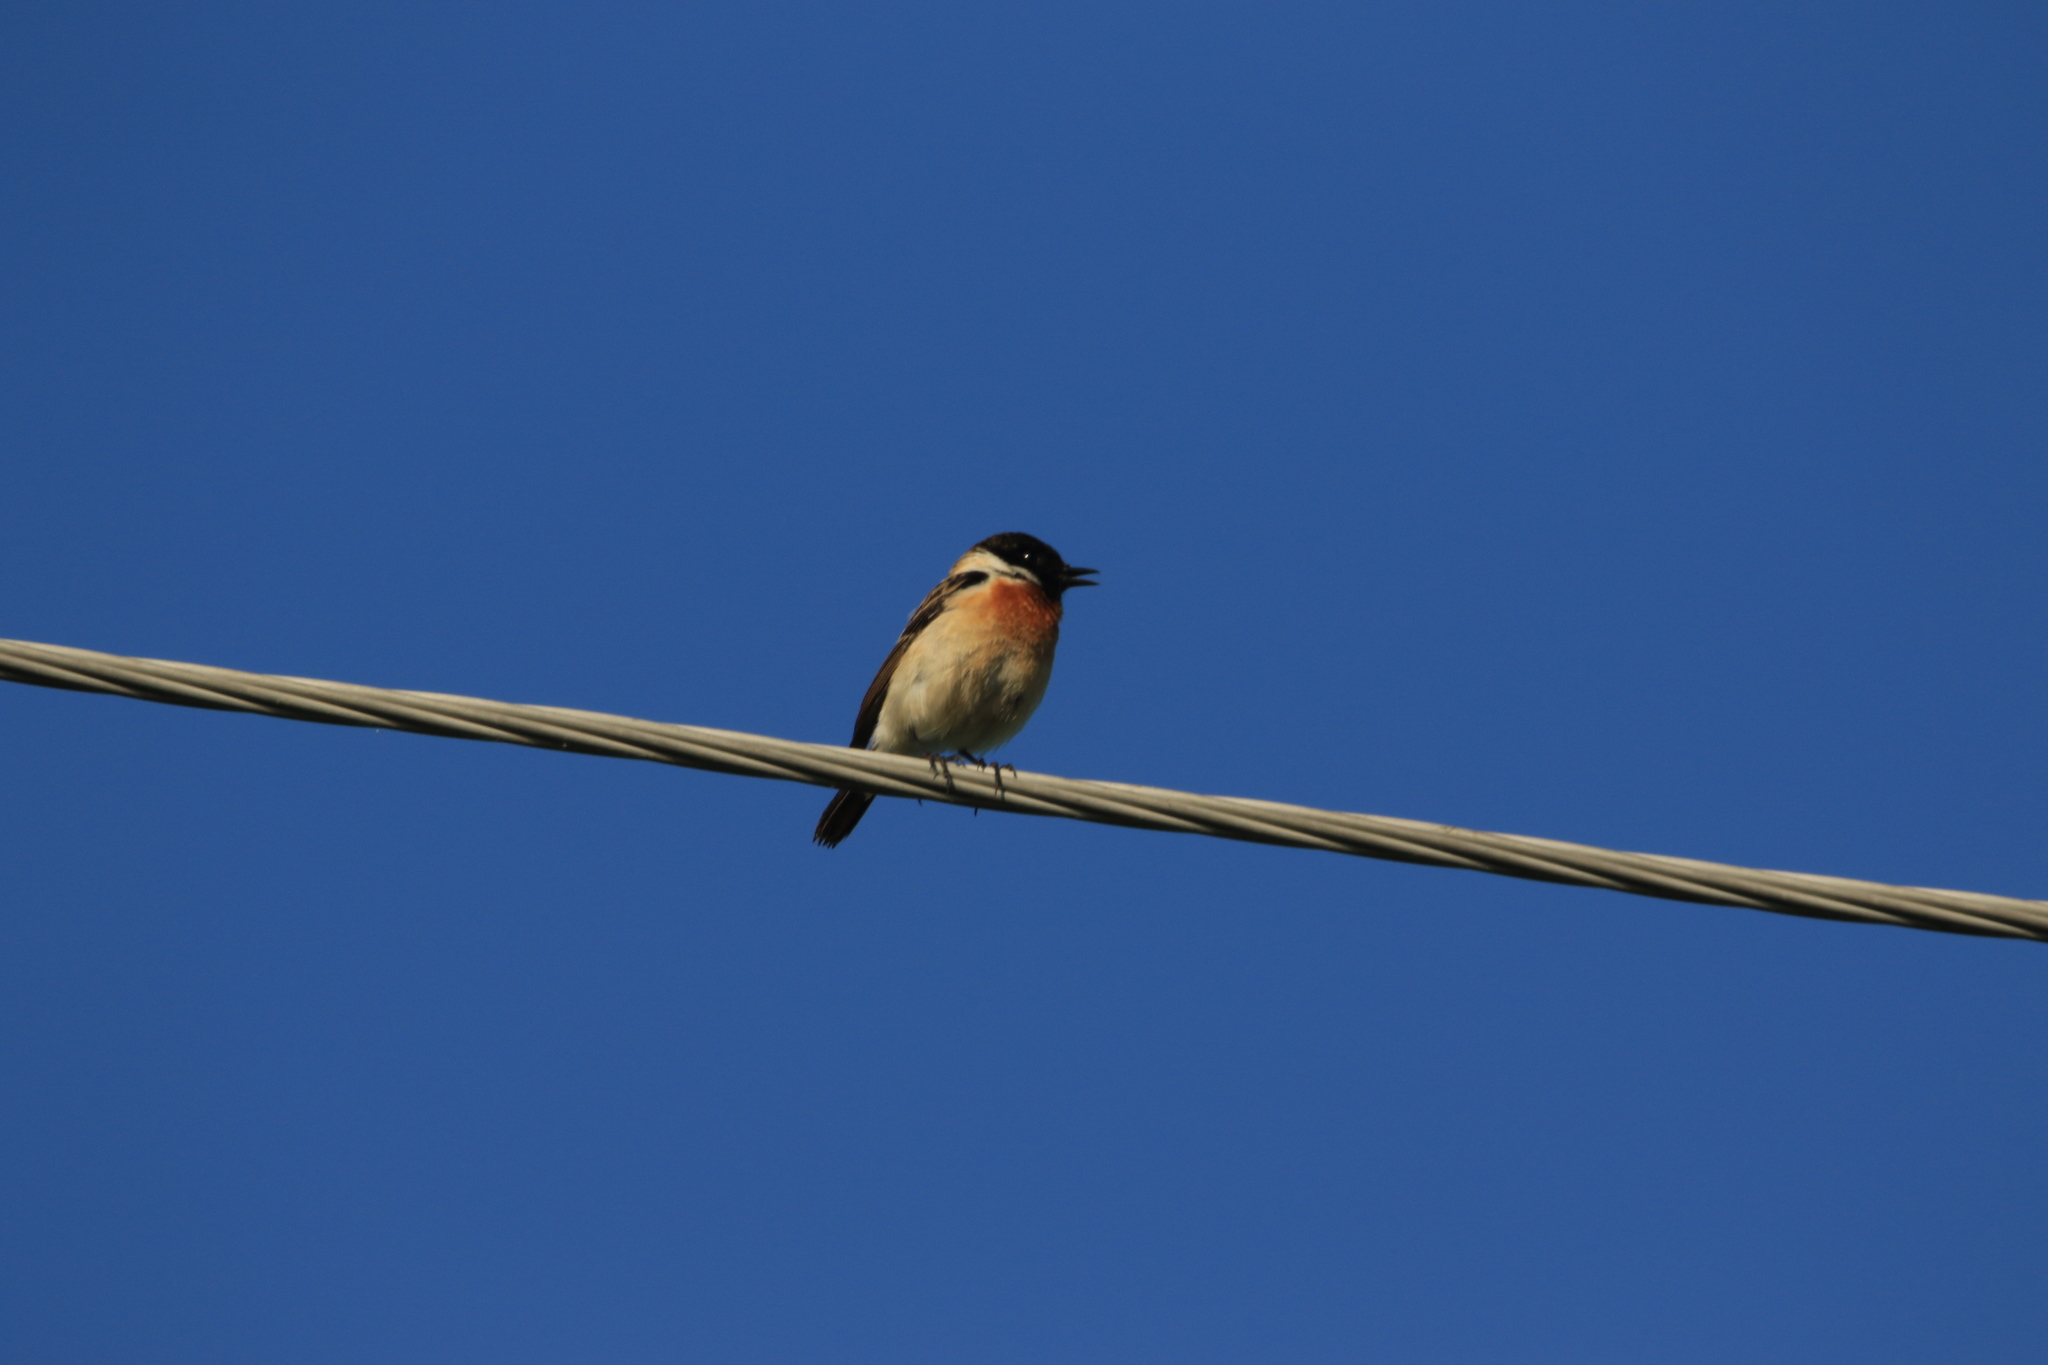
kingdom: Animalia
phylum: Chordata
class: Aves
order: Passeriformes
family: Muscicapidae
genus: Saxicola
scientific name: Saxicola maurus
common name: Siberian stonechat
